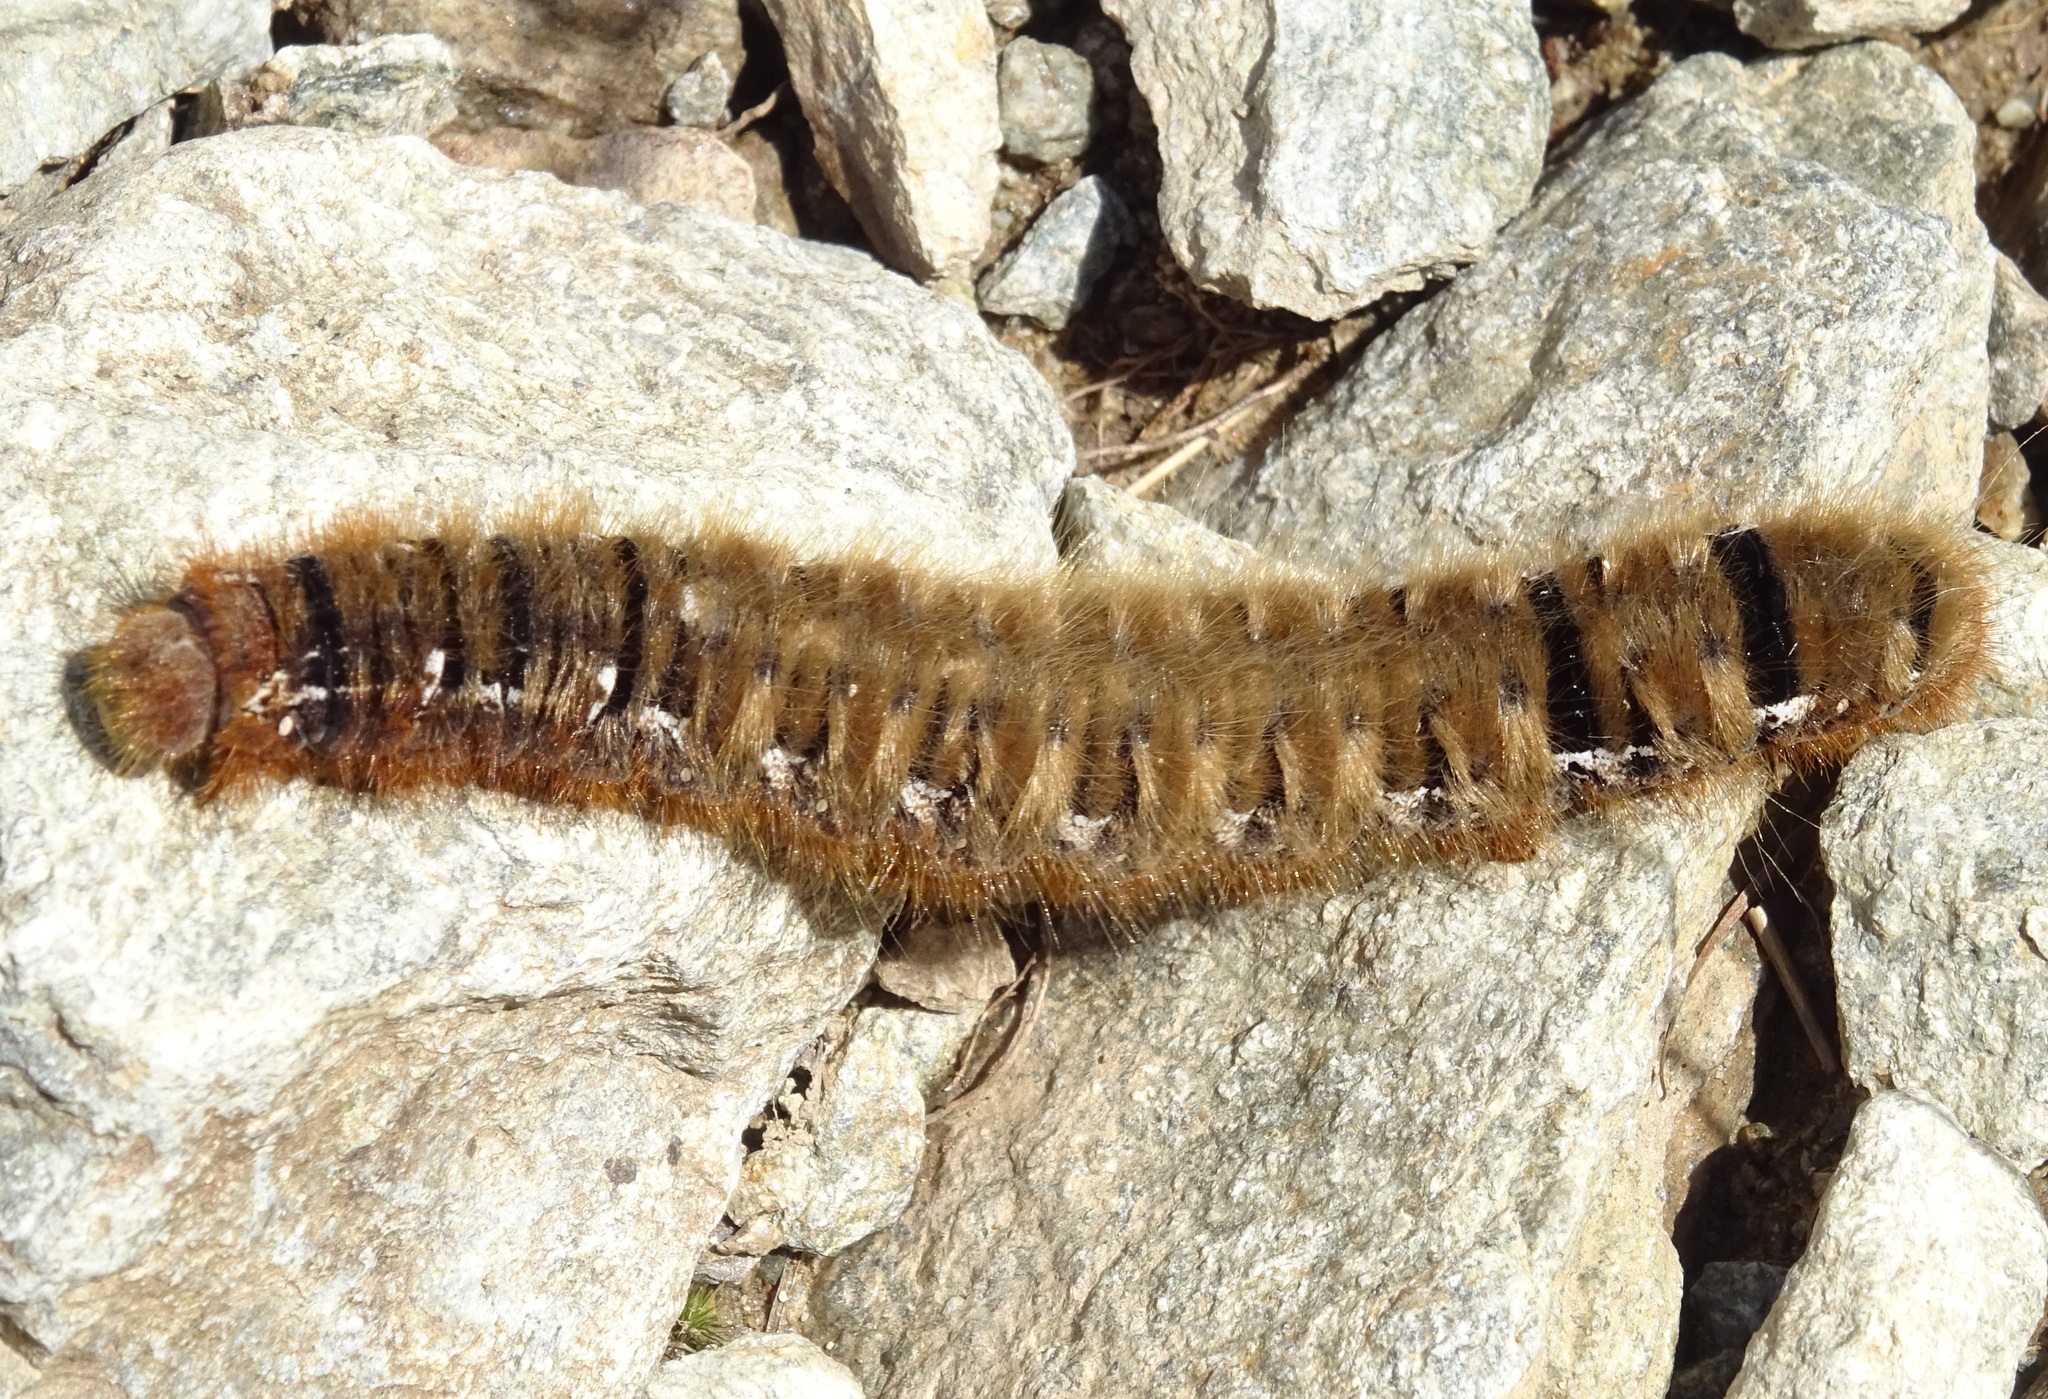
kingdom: Animalia
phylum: Arthropoda
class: Insecta
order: Lepidoptera
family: Lasiocampidae
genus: Lasiocampa
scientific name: Lasiocampa quercus
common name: Oak eggar
